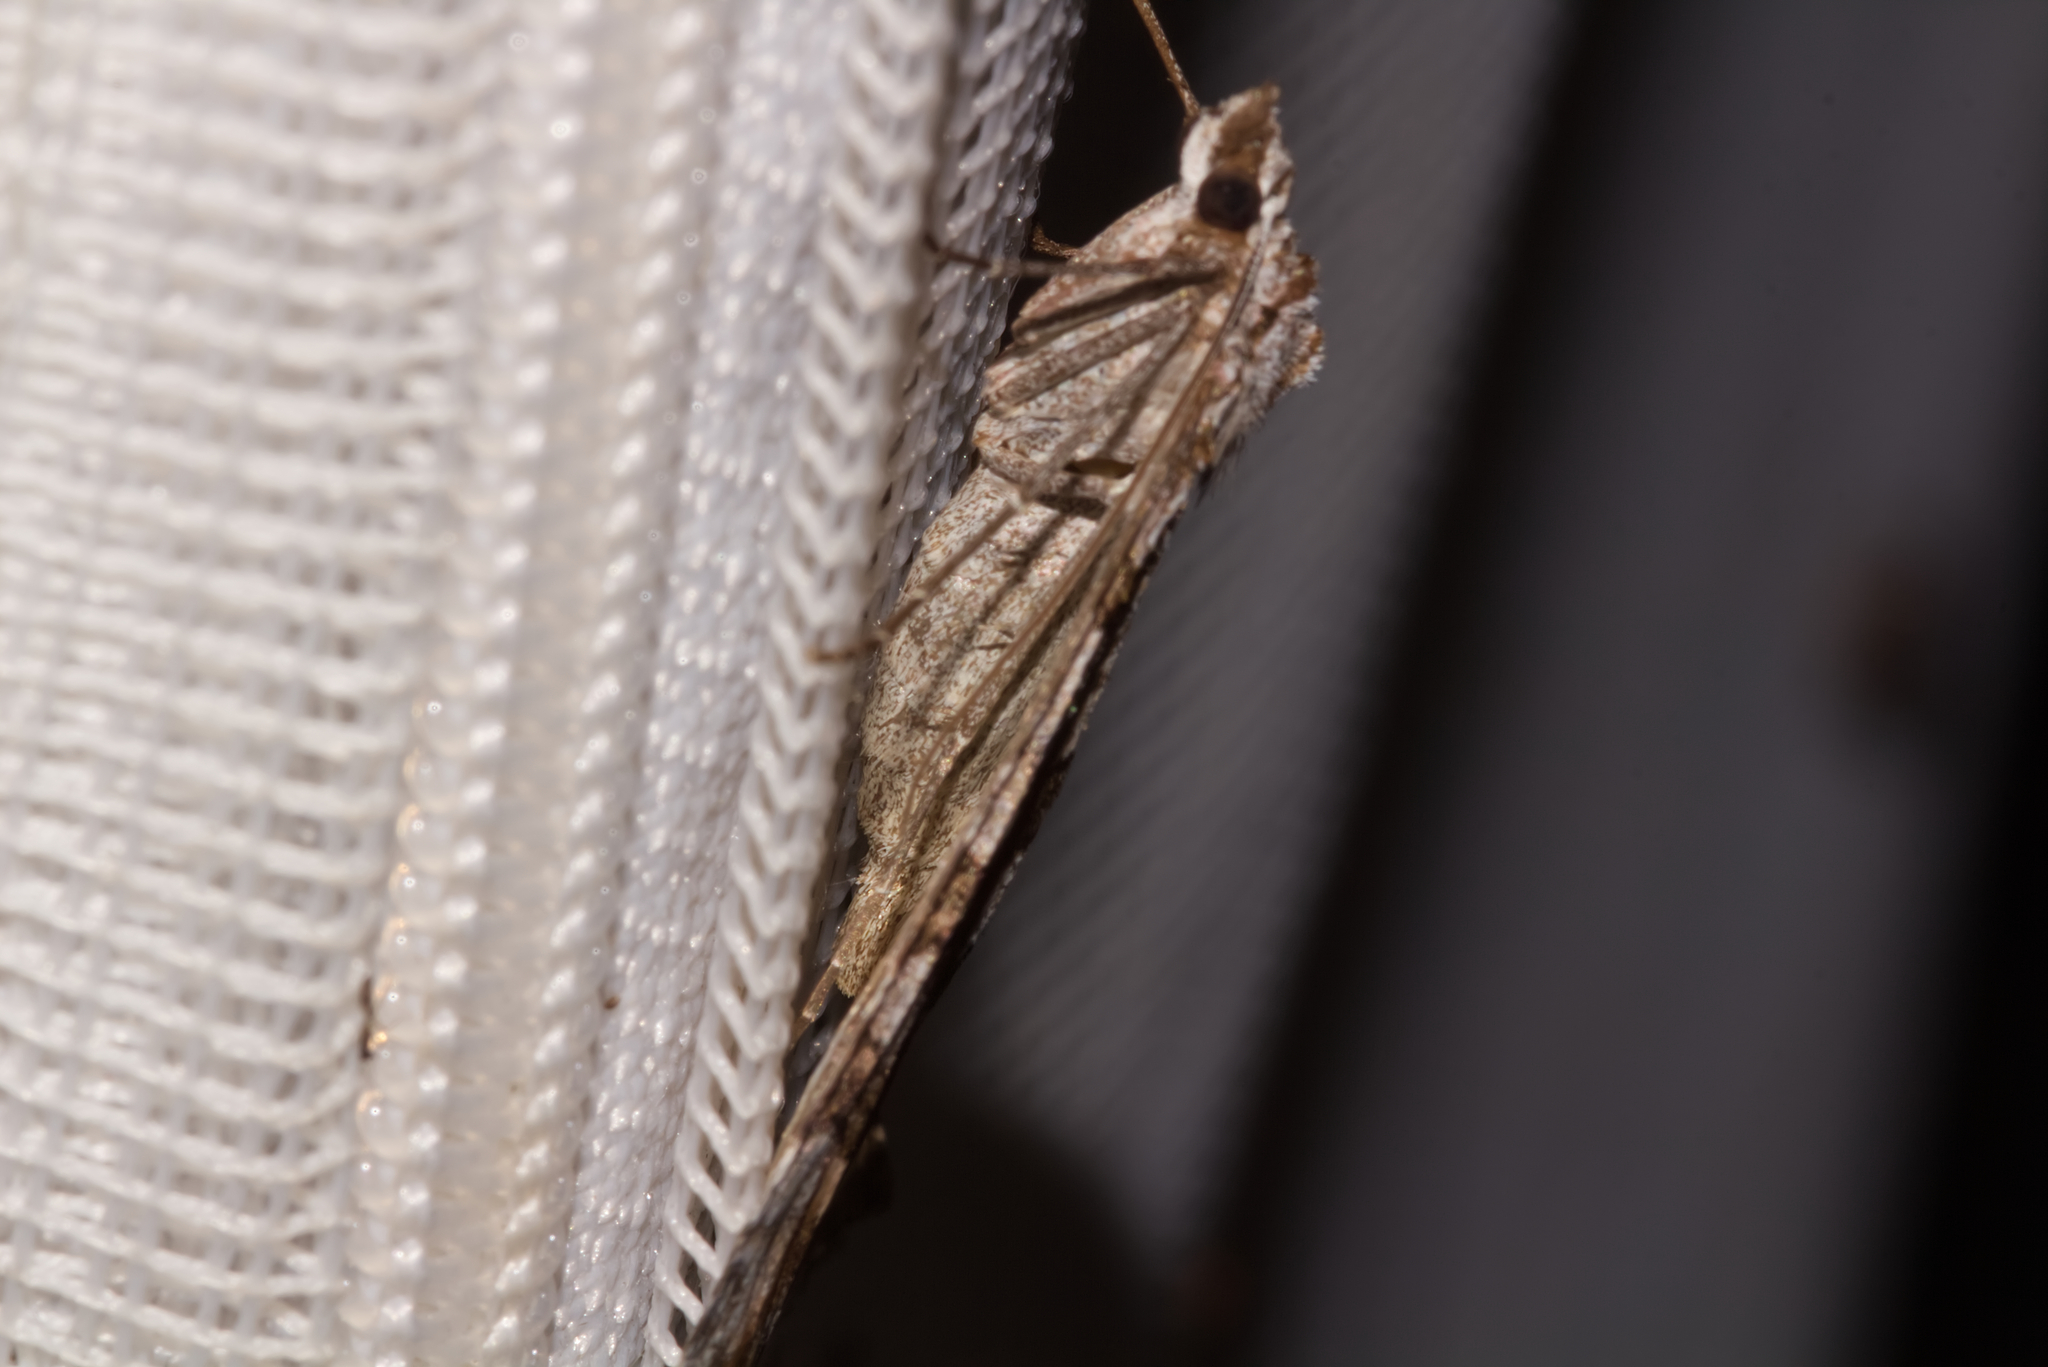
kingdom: Animalia
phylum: Arthropoda
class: Insecta
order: Lepidoptera
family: Geometridae
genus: Aplocera
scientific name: Aplocera plagiata
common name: Treble-bar
